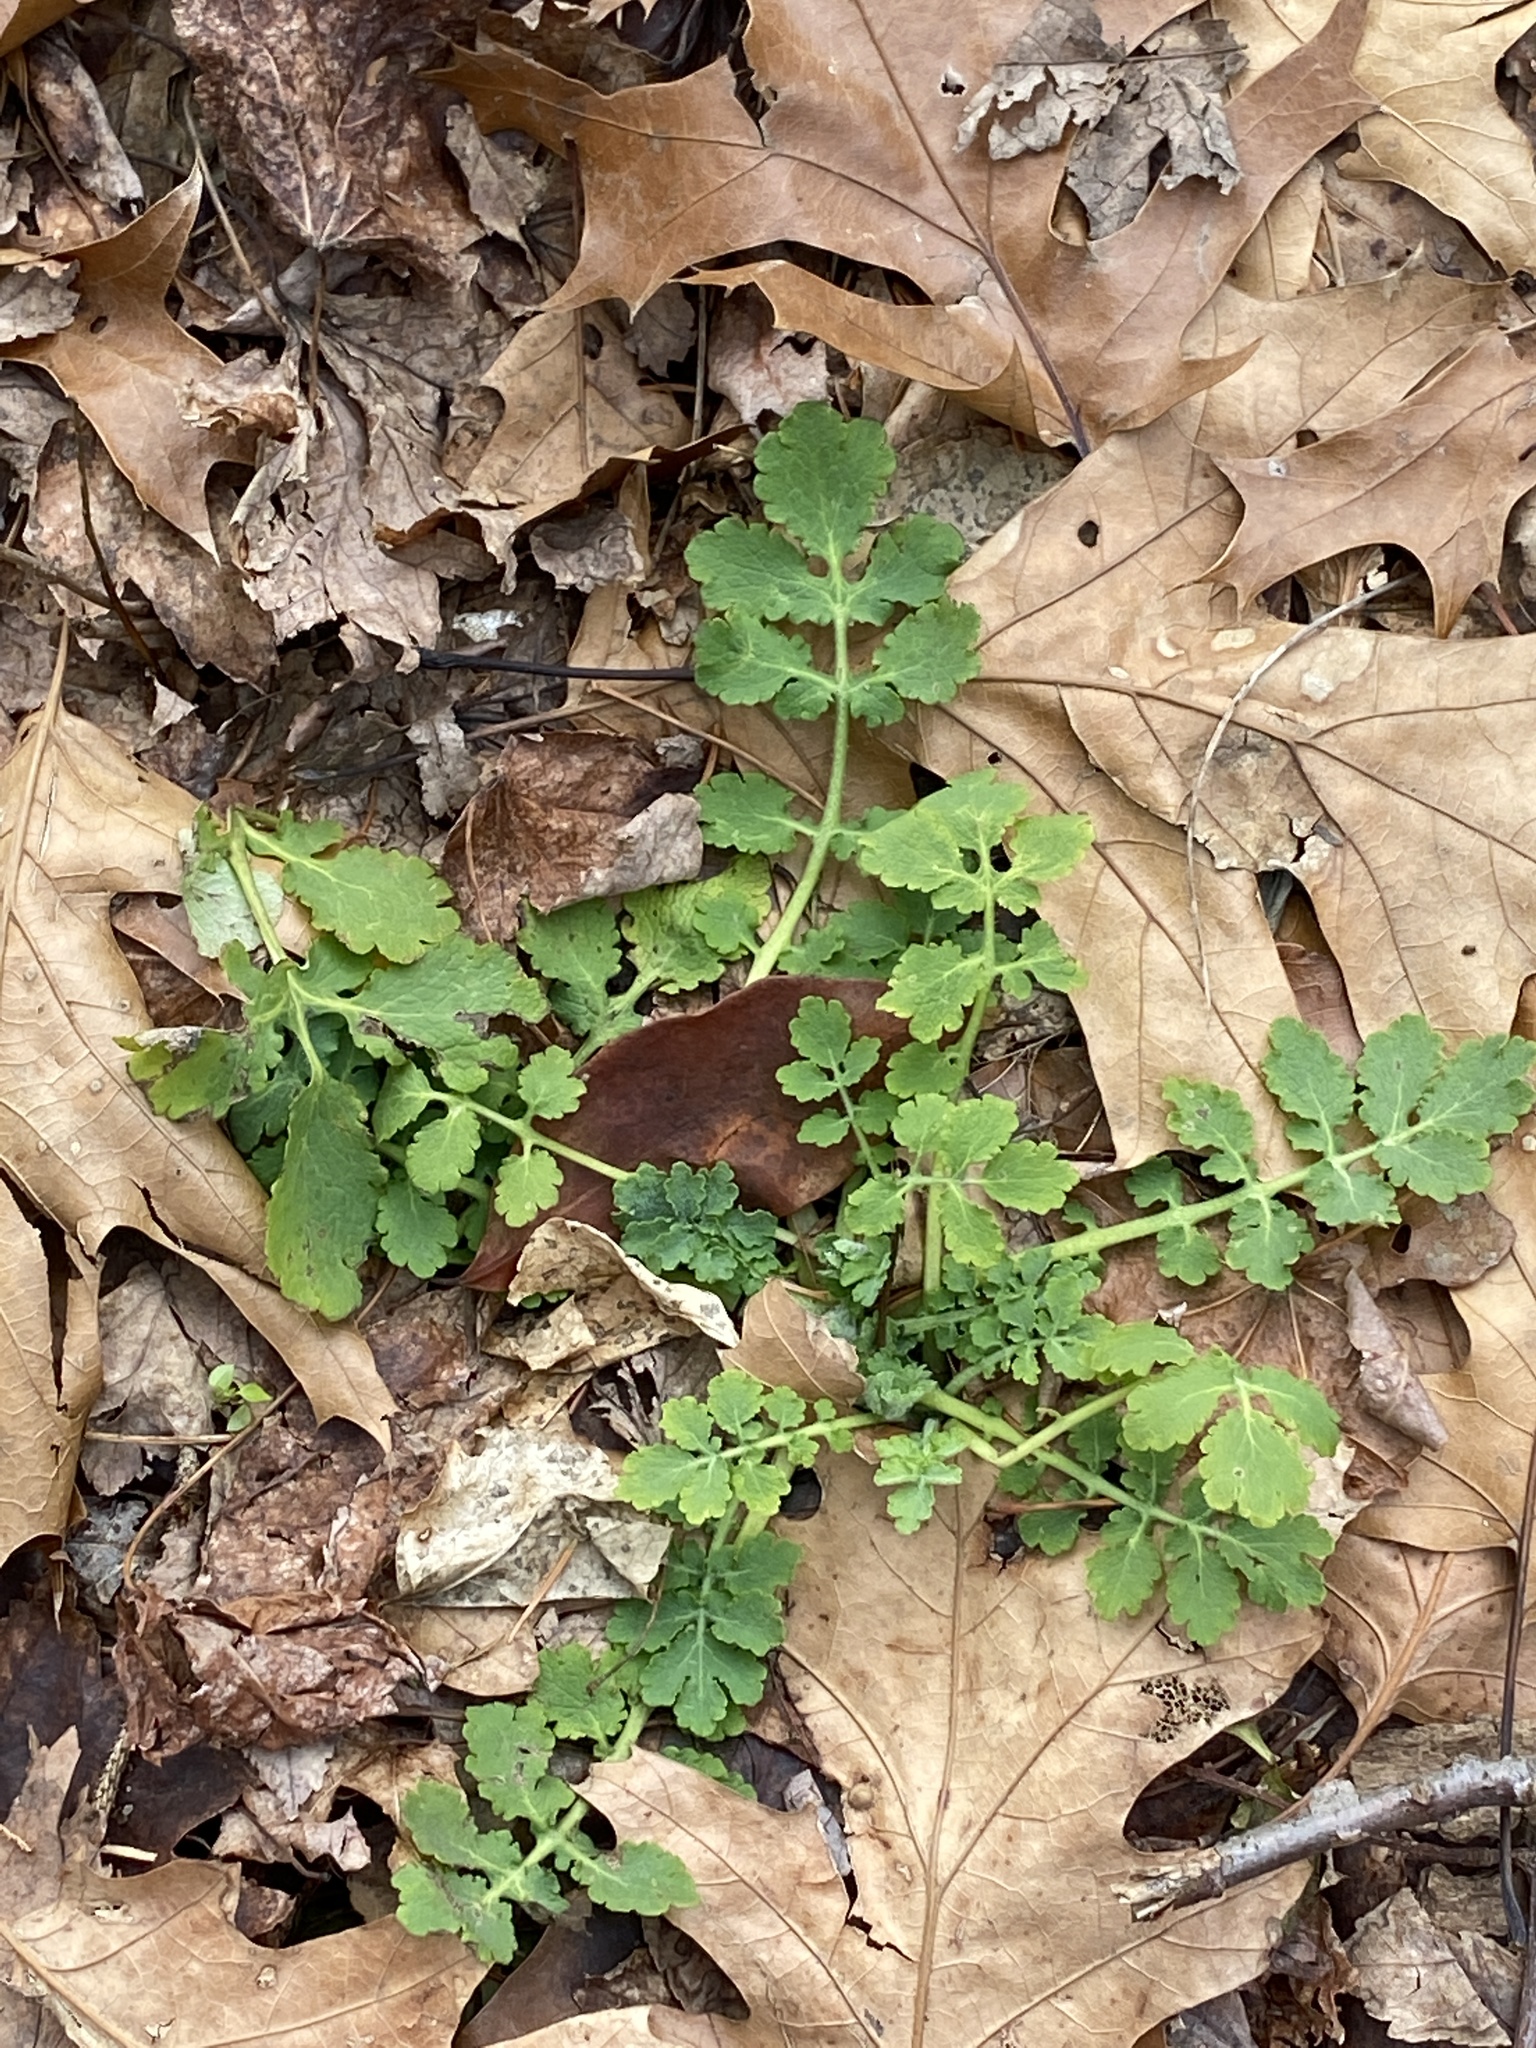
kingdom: Plantae
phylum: Tracheophyta
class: Magnoliopsida
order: Ranunculales
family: Papaveraceae
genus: Chelidonium
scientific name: Chelidonium majus
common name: Greater celandine
